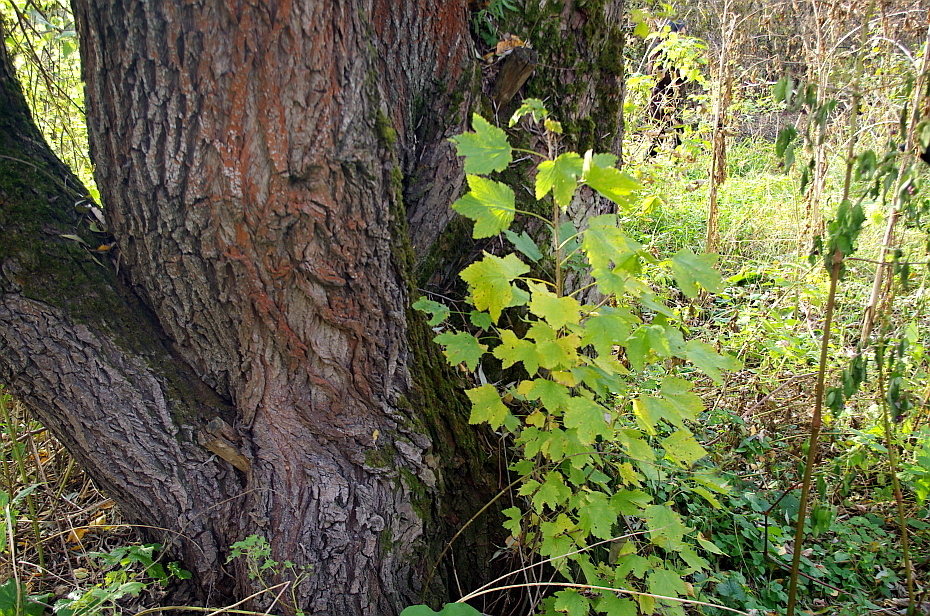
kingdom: Plantae
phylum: Tracheophyta
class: Magnoliopsida
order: Saxifragales
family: Grossulariaceae
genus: Ribes
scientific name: Ribes rubrum
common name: Red currant
